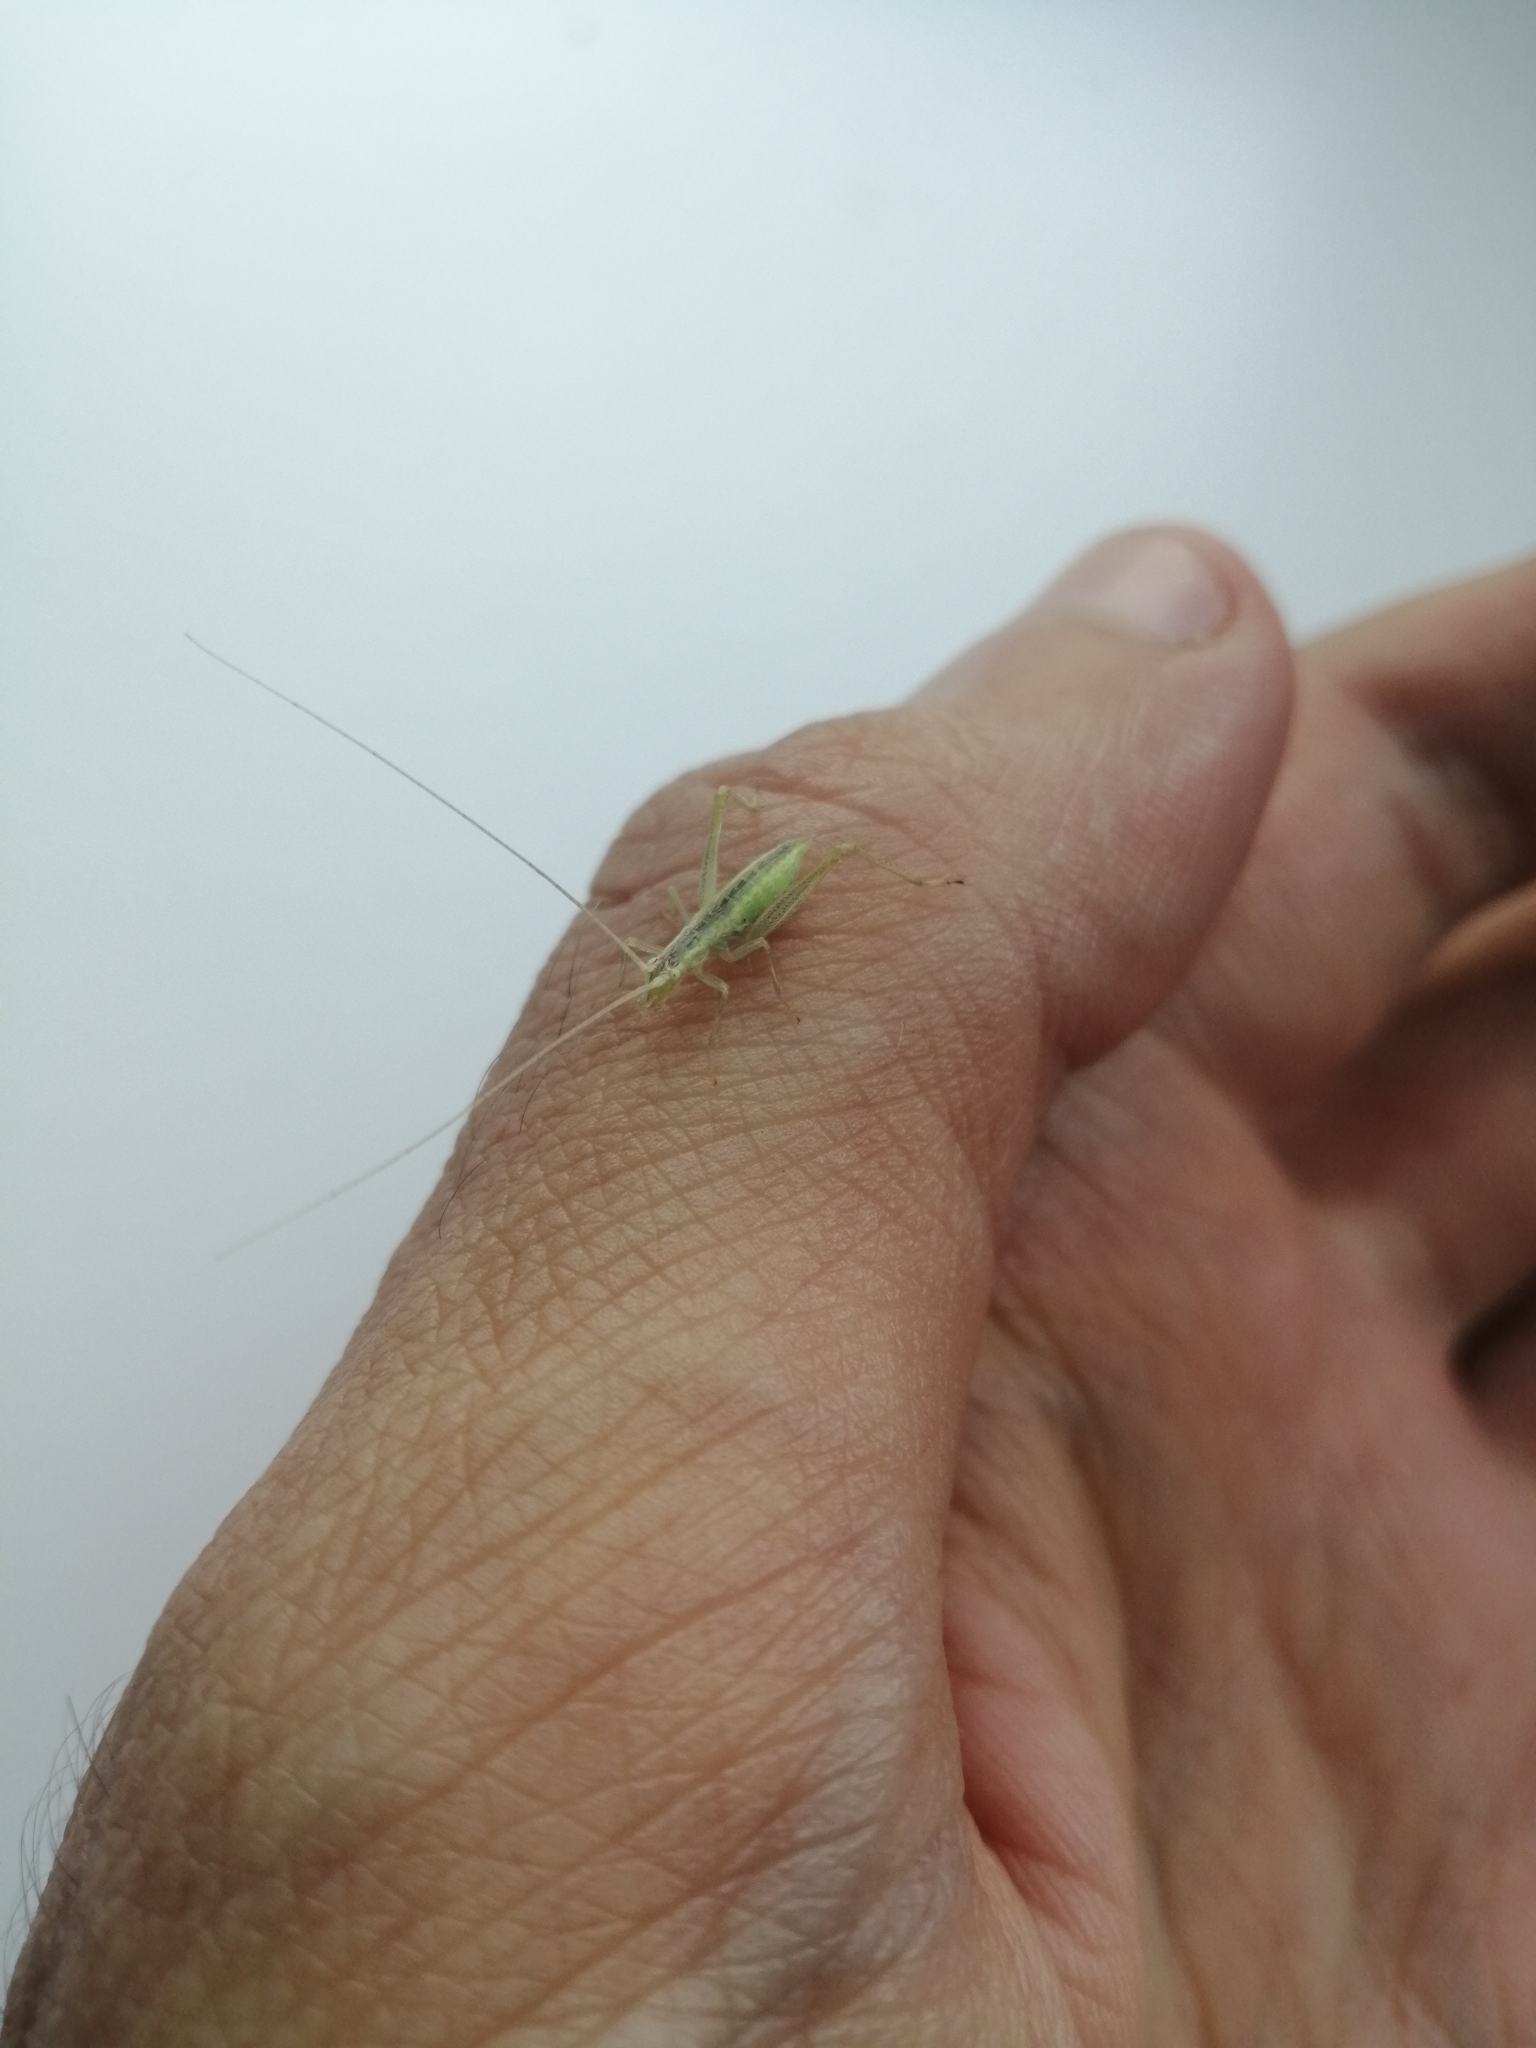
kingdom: Animalia
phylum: Arthropoda
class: Insecta
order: Orthoptera
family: Gryllidae
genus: Oecanthus
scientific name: Oecanthus pellucens
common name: Tree-cricket
